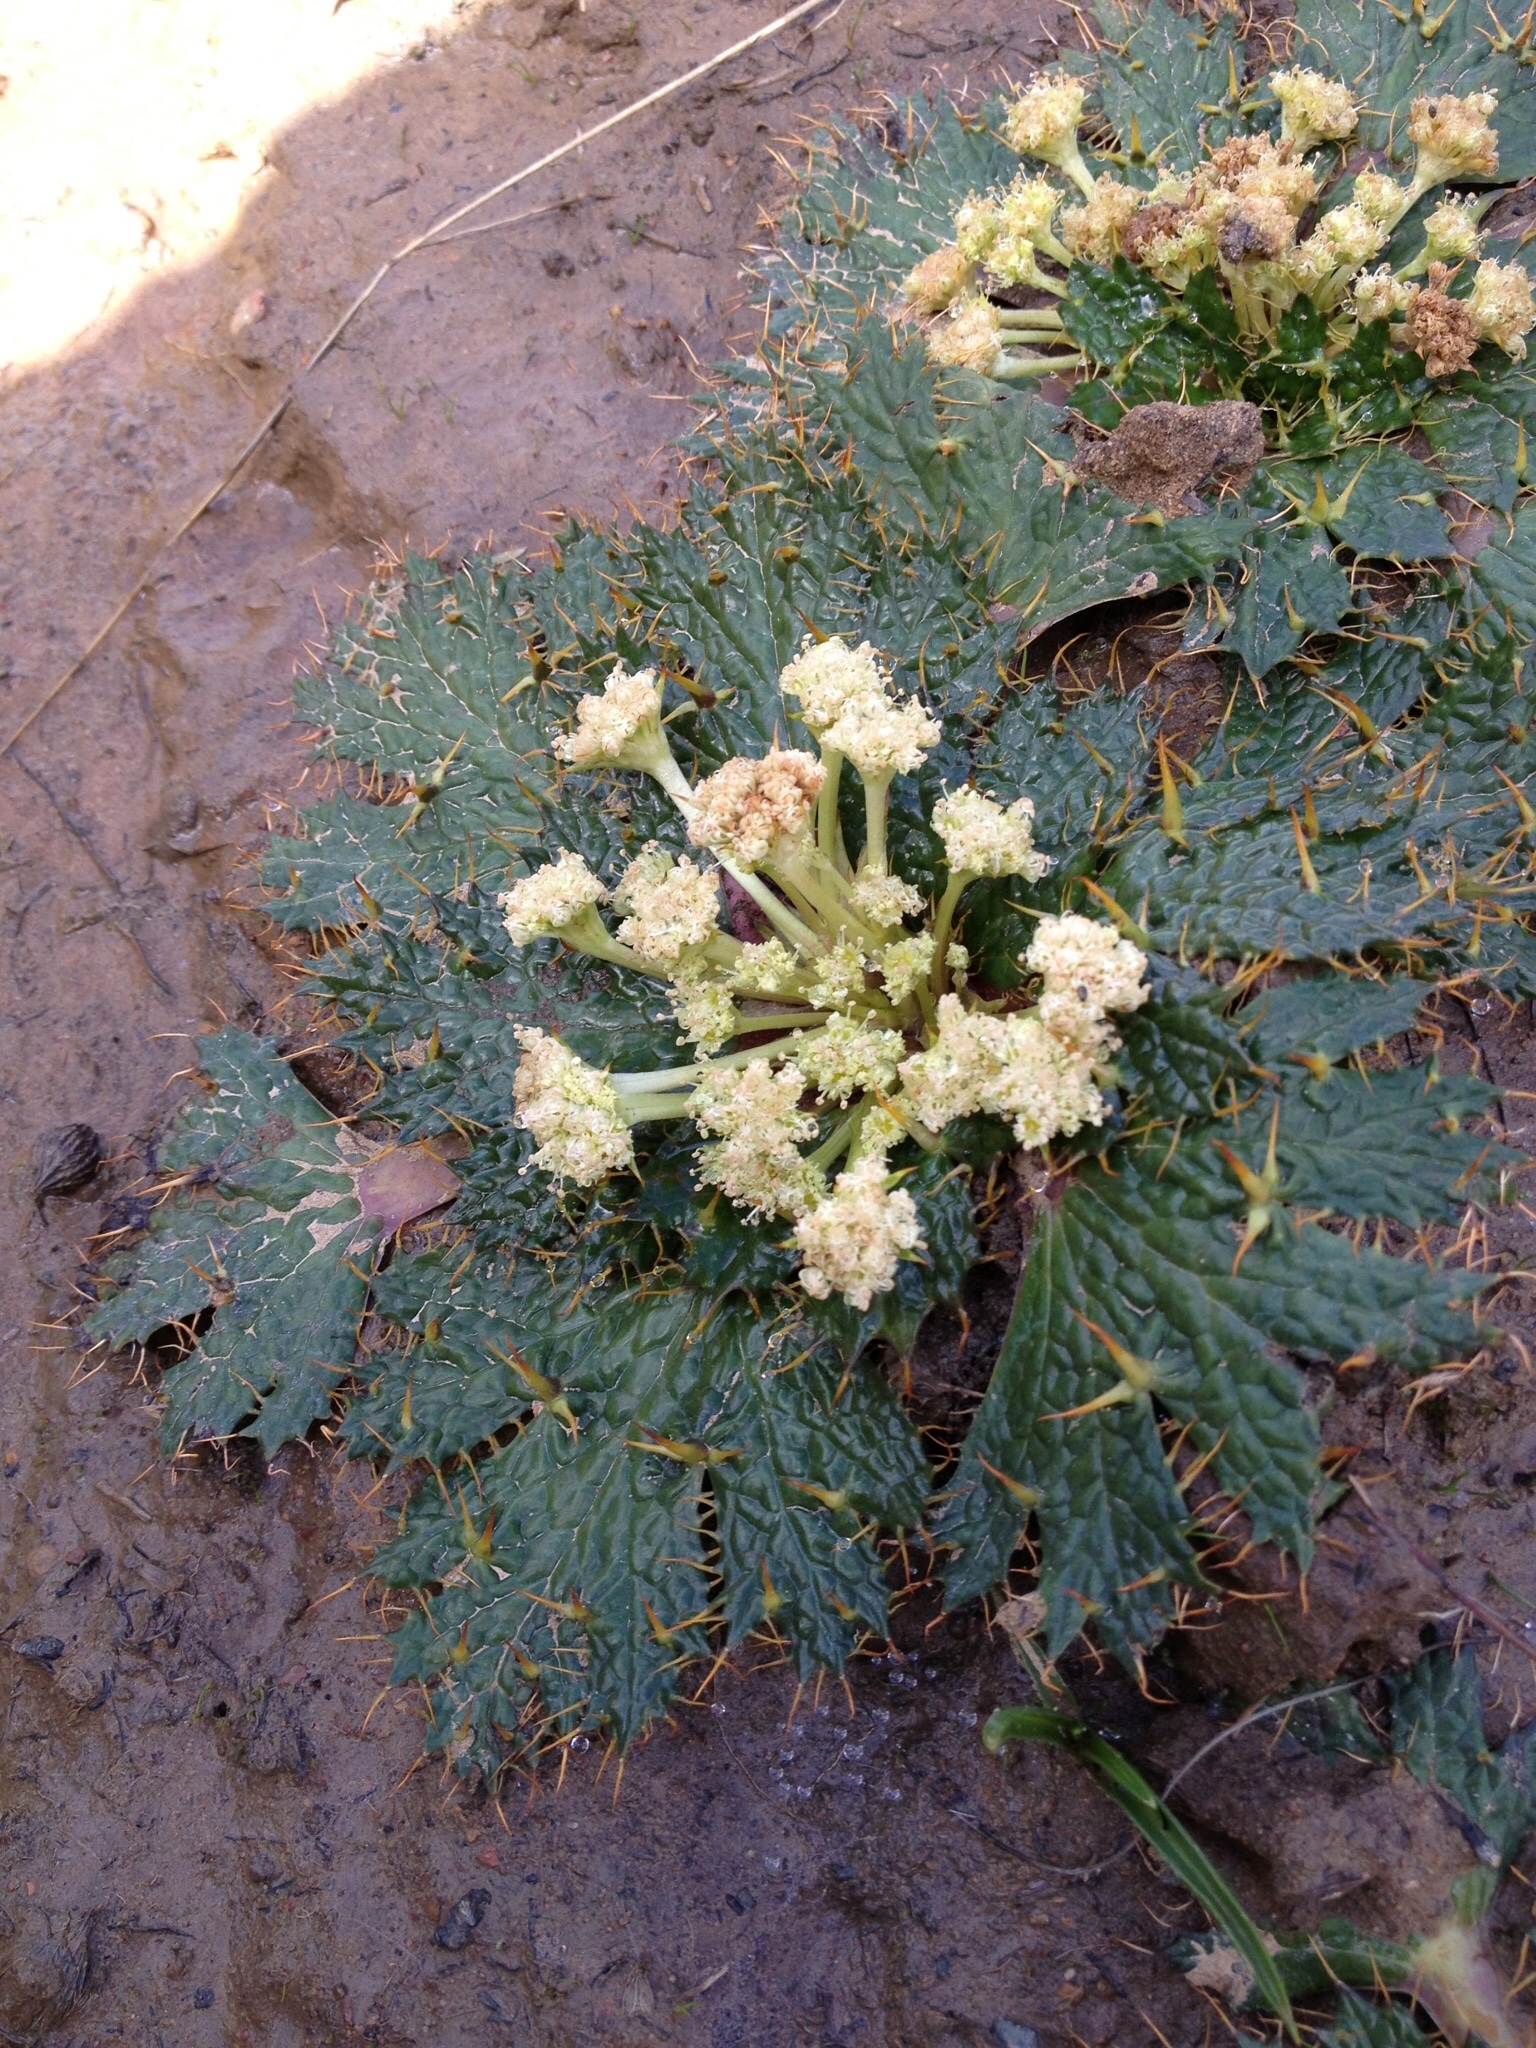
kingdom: Plantae
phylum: Tracheophyta
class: Magnoliopsida
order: Apiales
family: Apiaceae
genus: Arctopus
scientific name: Arctopus echinatus
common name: Platdoring
